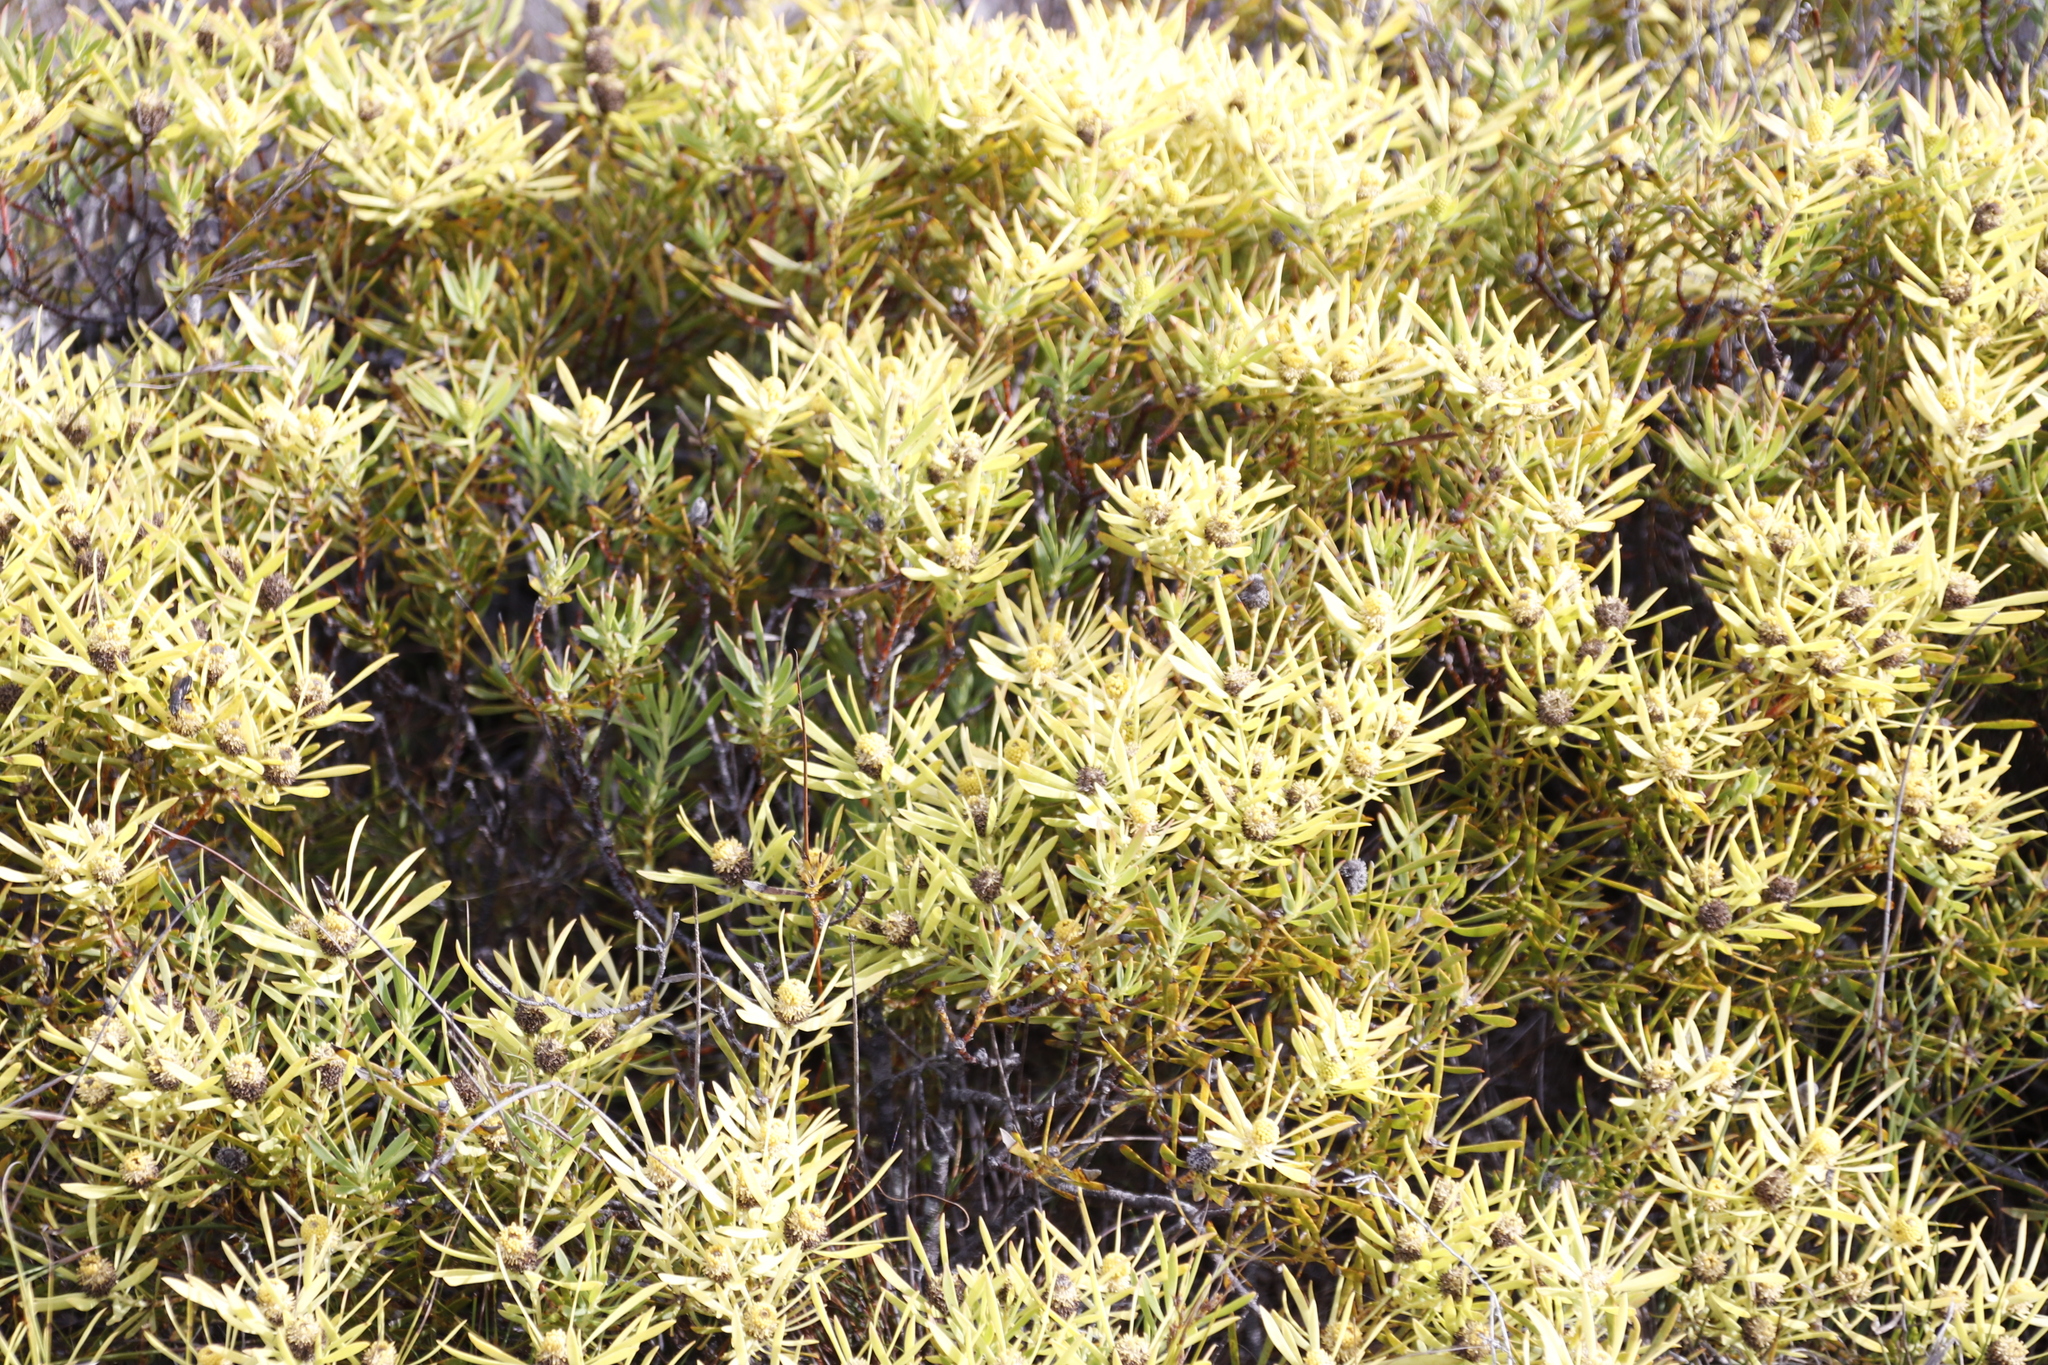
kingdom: Plantae
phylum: Tracheophyta
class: Magnoliopsida
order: Proteales
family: Proteaceae
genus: Leucadendron
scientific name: Leucadendron salignum
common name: Common sunshine conebush
